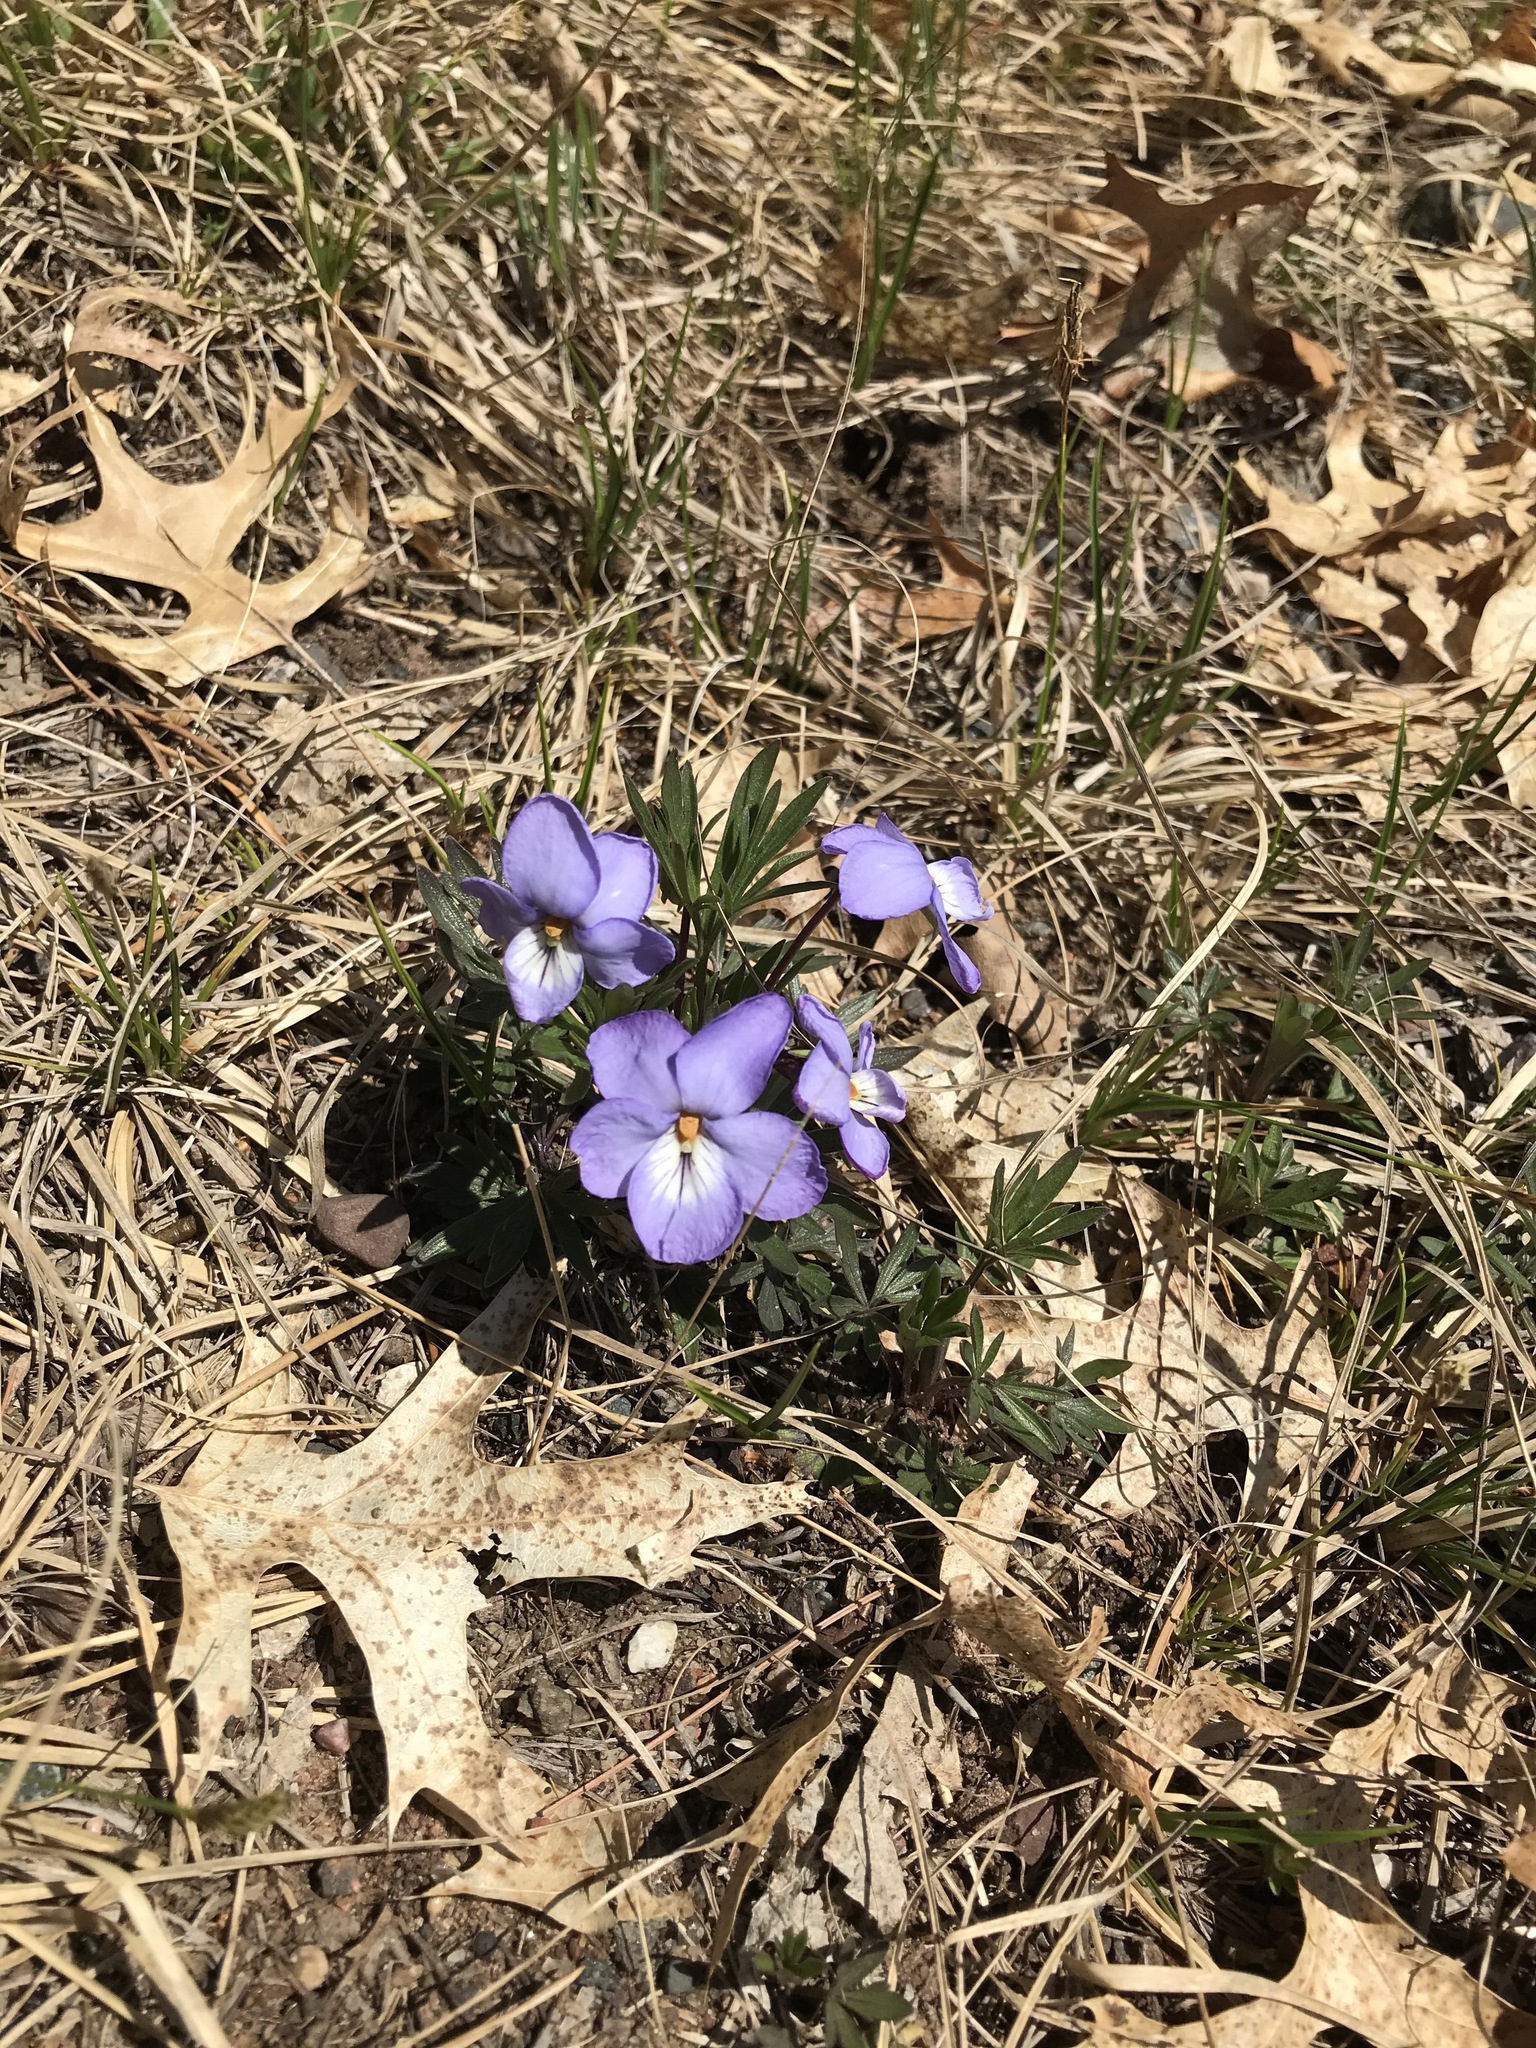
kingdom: Plantae
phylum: Tracheophyta
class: Magnoliopsida
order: Malpighiales
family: Violaceae
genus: Viola
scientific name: Viola pedata
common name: Pansy violet
